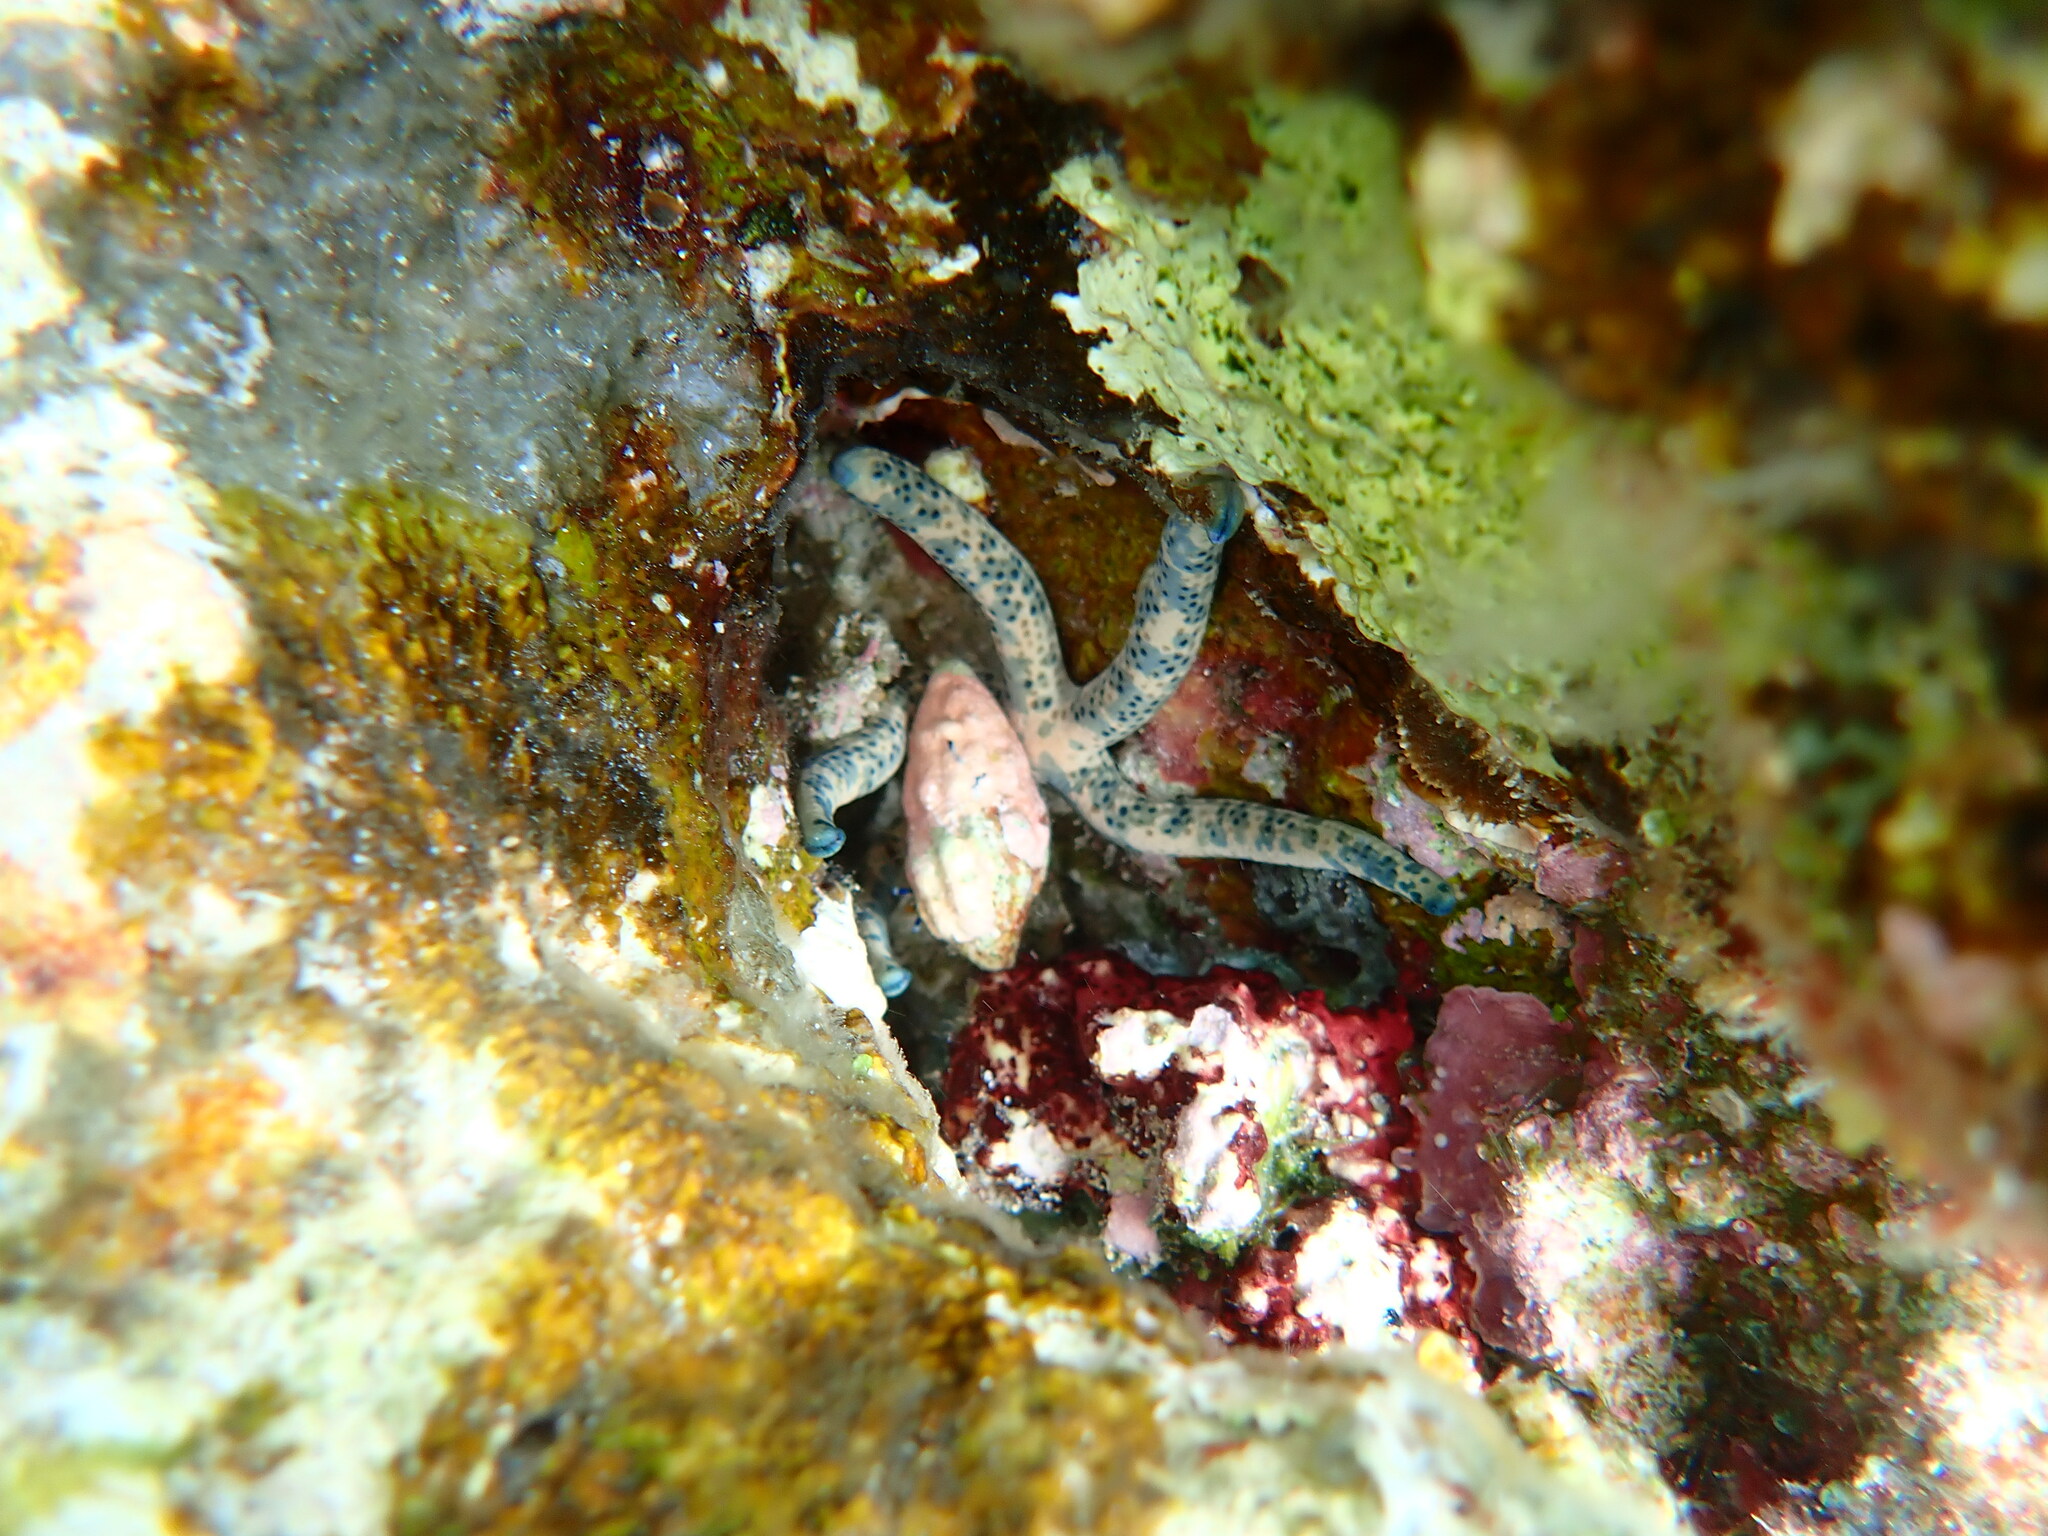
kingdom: Animalia
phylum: Echinodermata
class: Asteroidea
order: Valvatida
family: Ophidiasteridae
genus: Linckia
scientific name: Linckia multifora
